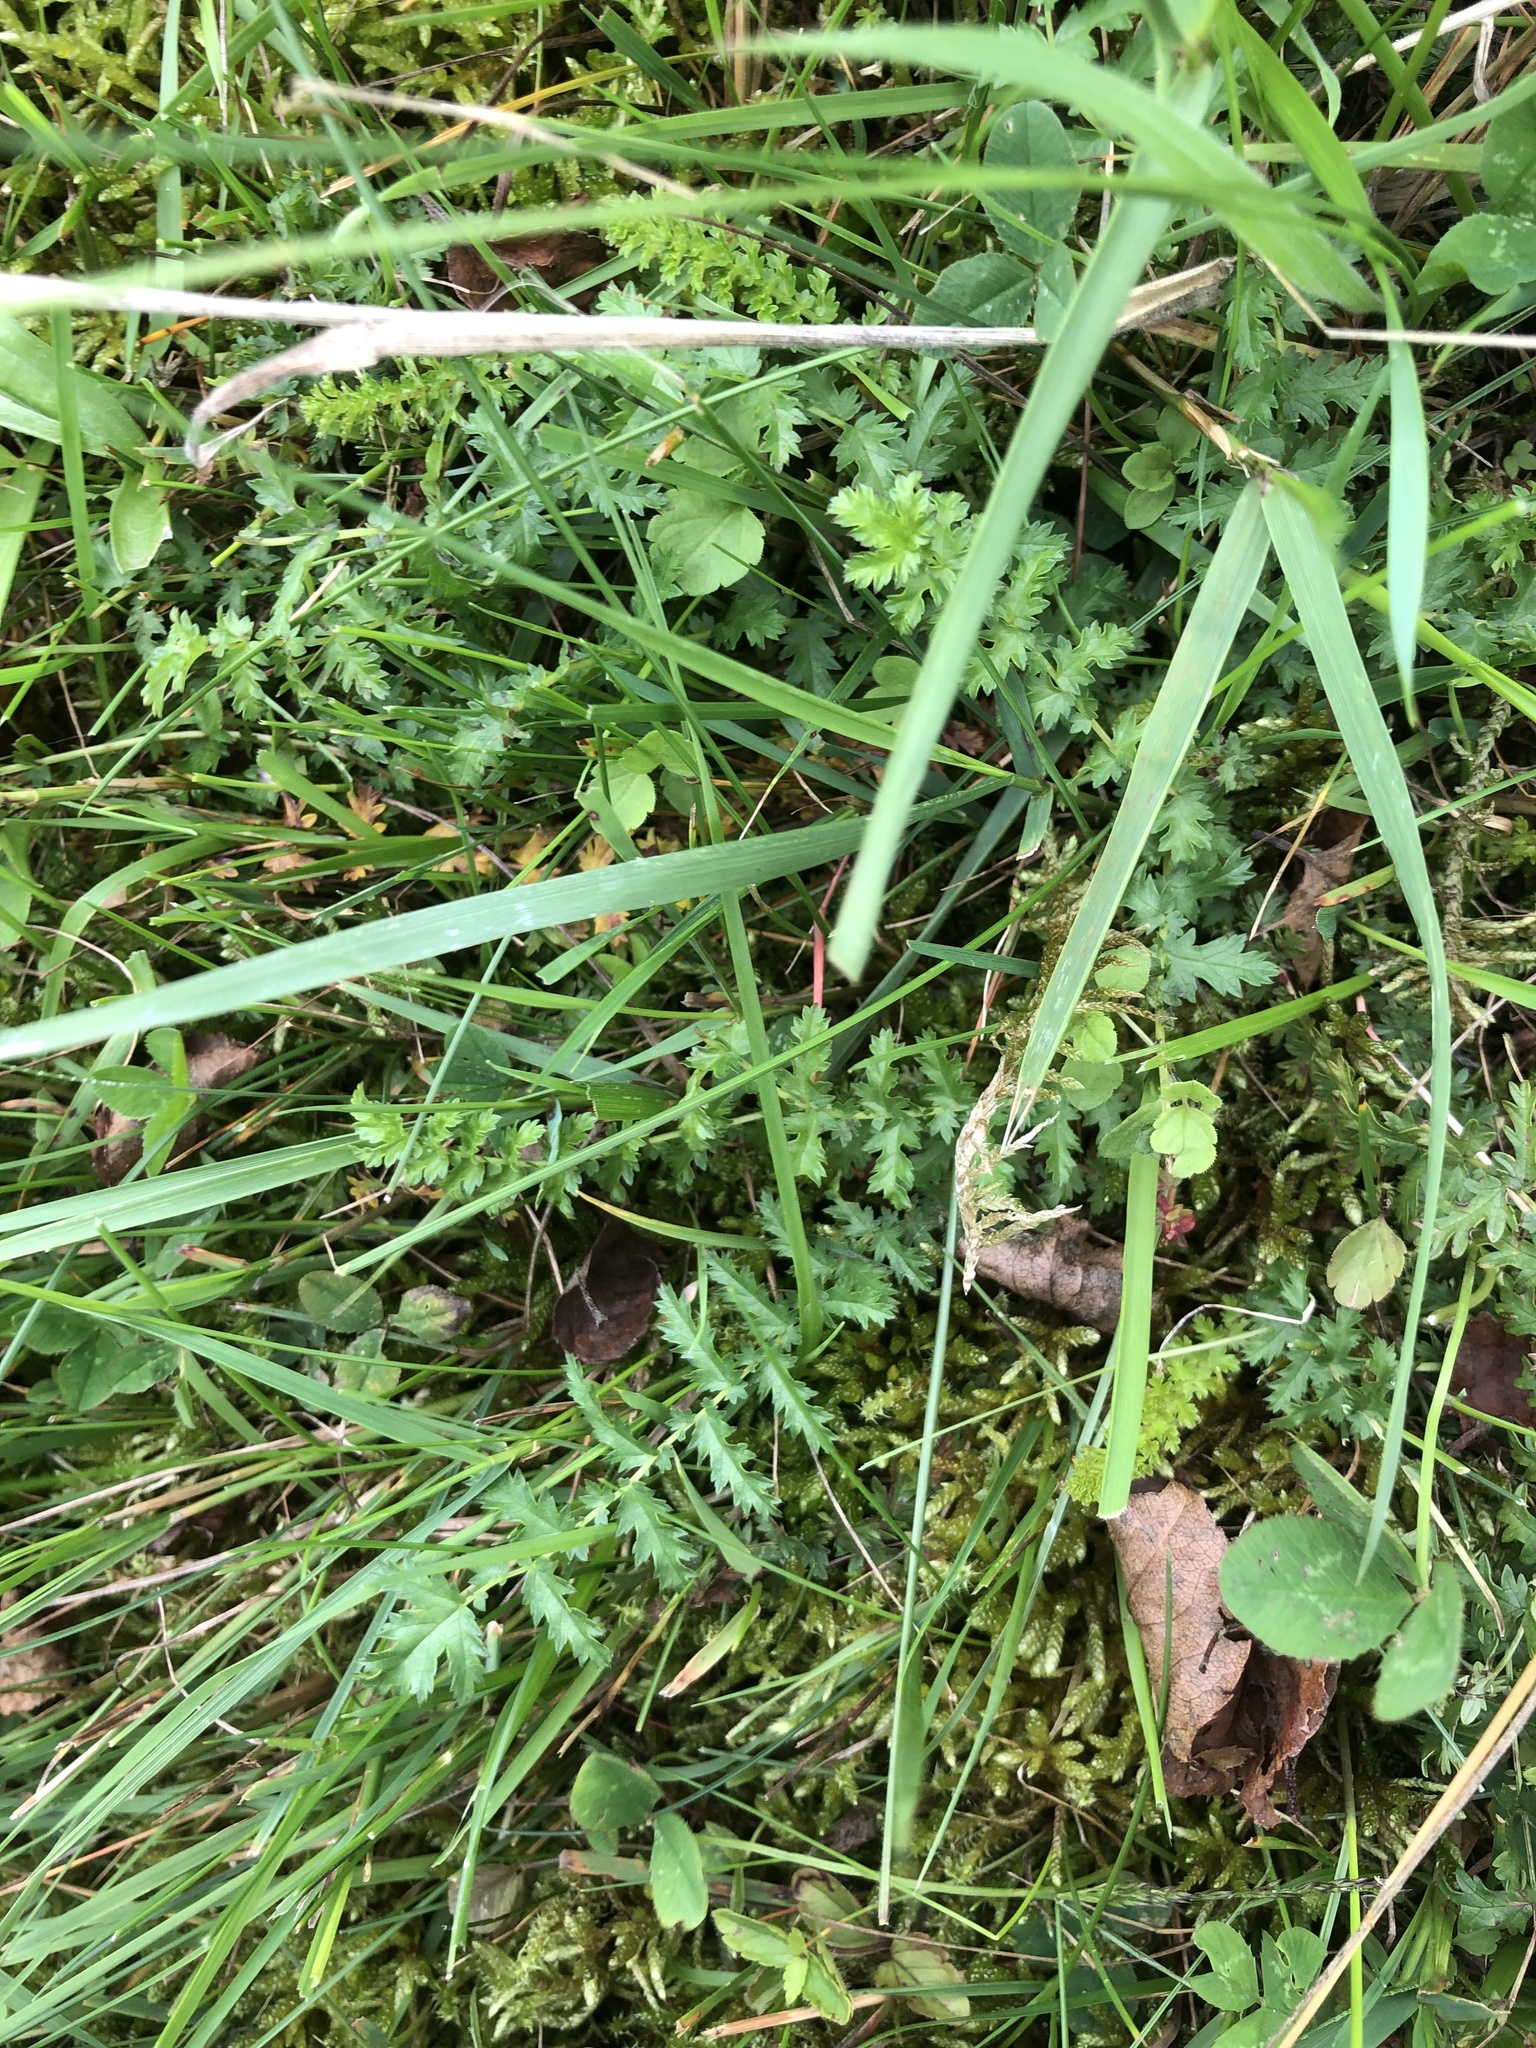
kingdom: Plantae
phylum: Tracheophyta
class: Magnoliopsida
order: Rosales
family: Rosaceae
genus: Filipendula
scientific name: Filipendula vulgaris
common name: Dropwort
